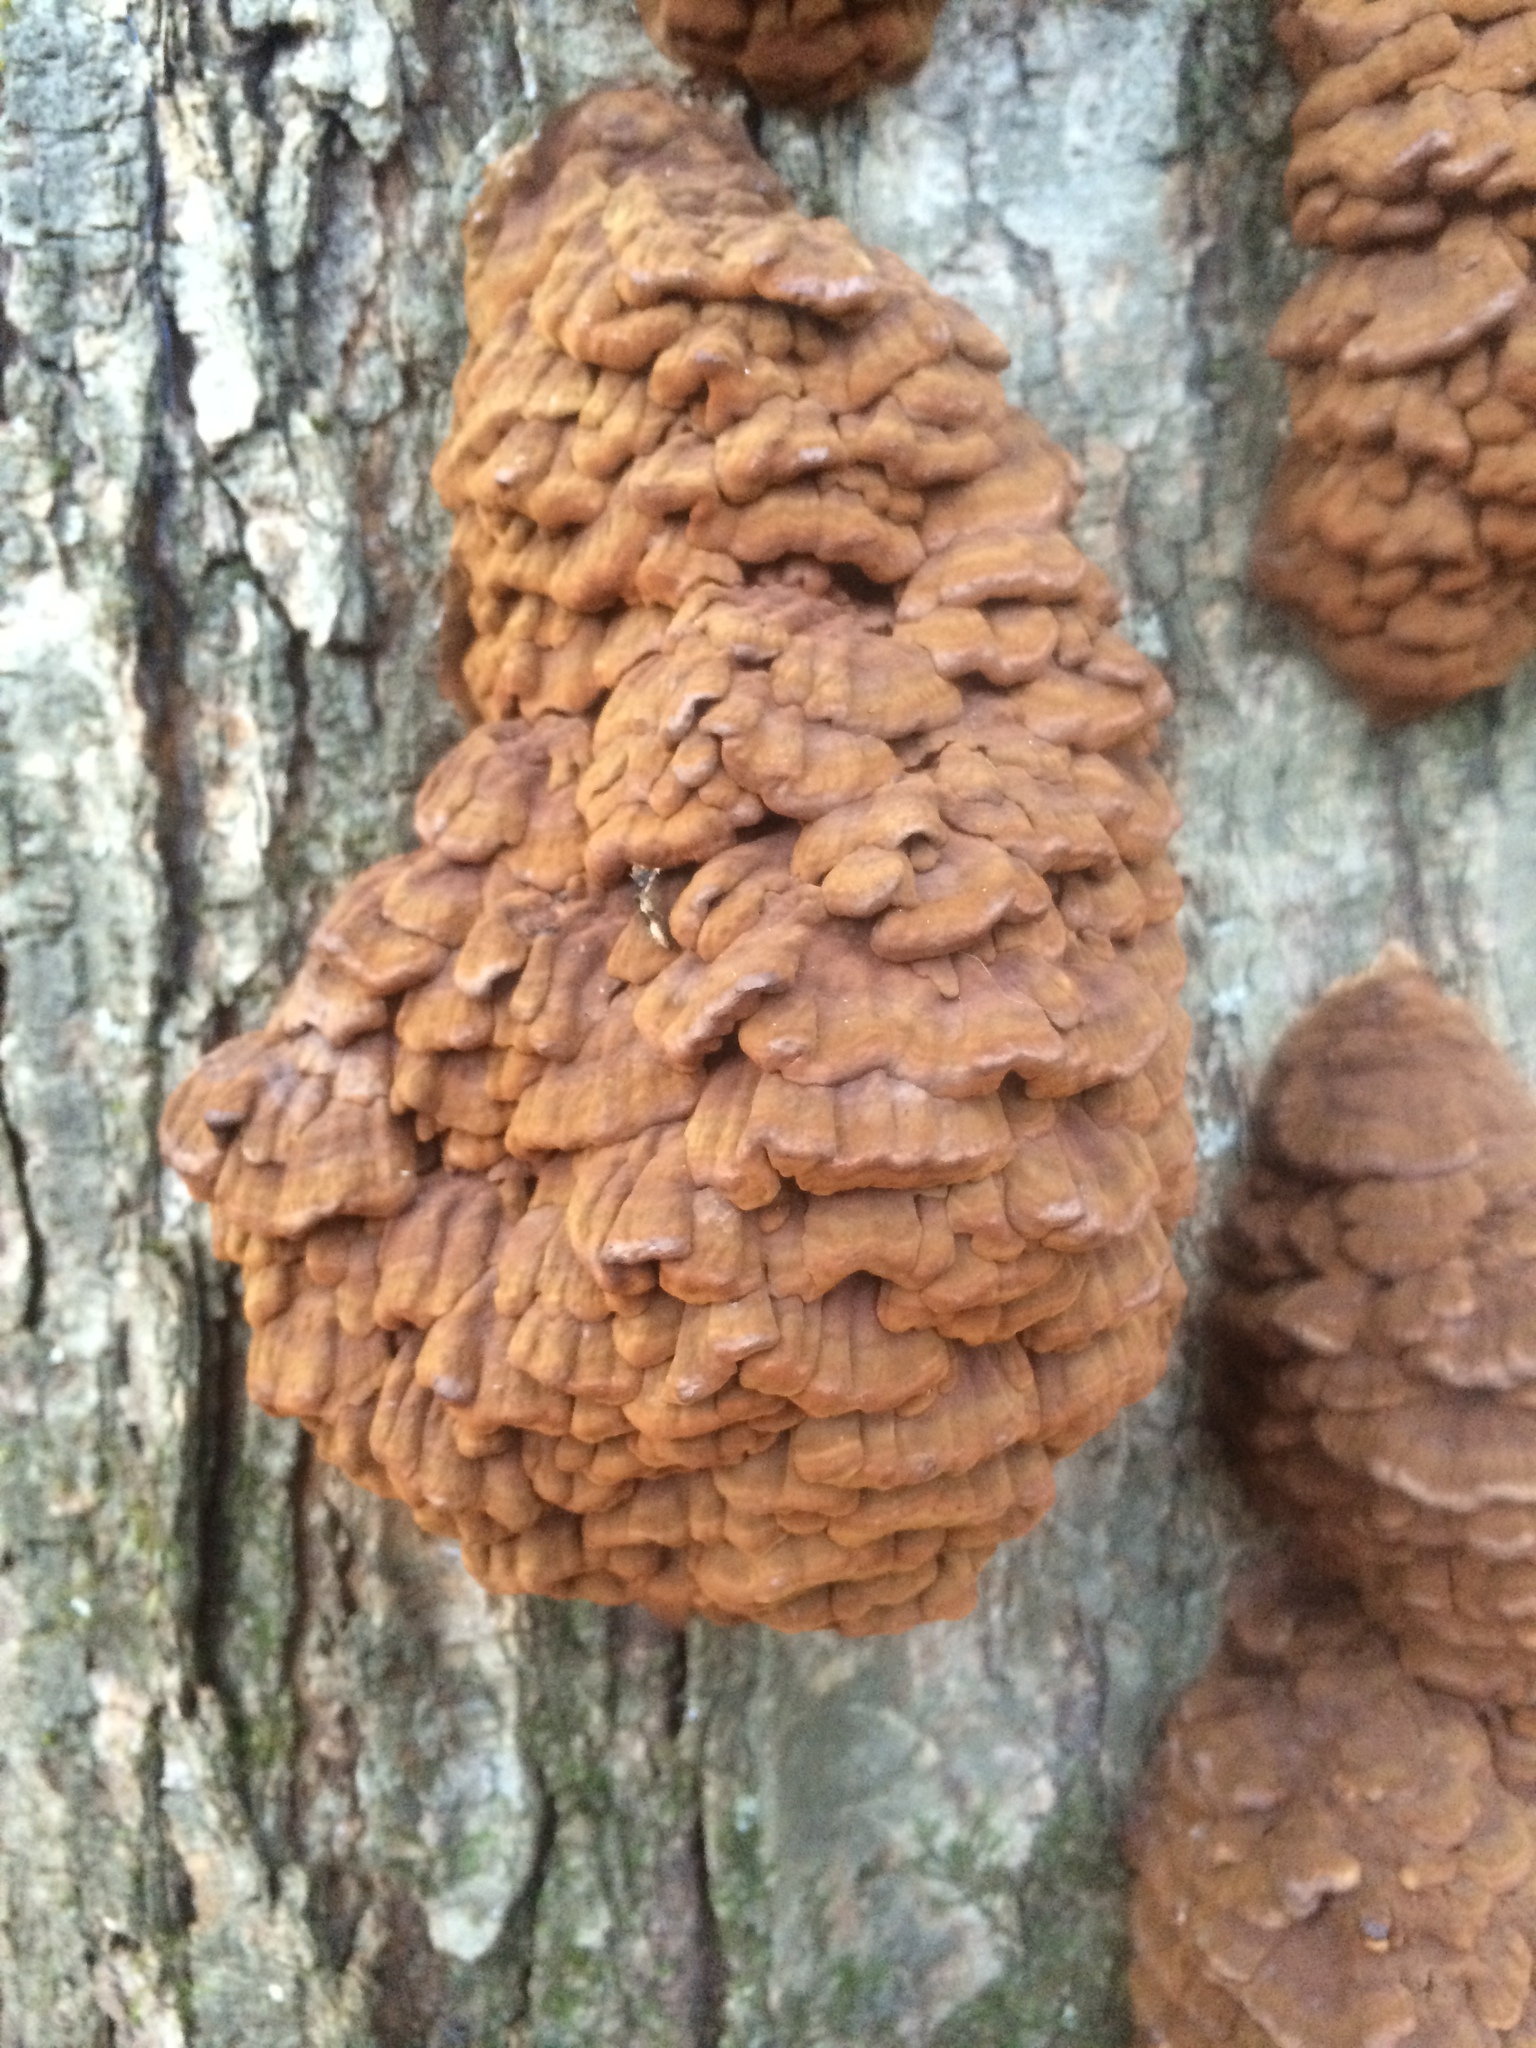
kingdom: Fungi
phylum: Basidiomycota
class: Agaricomycetes
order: Polyporales
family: Polyporaceae
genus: Globifomes
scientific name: Globifomes graveolens
